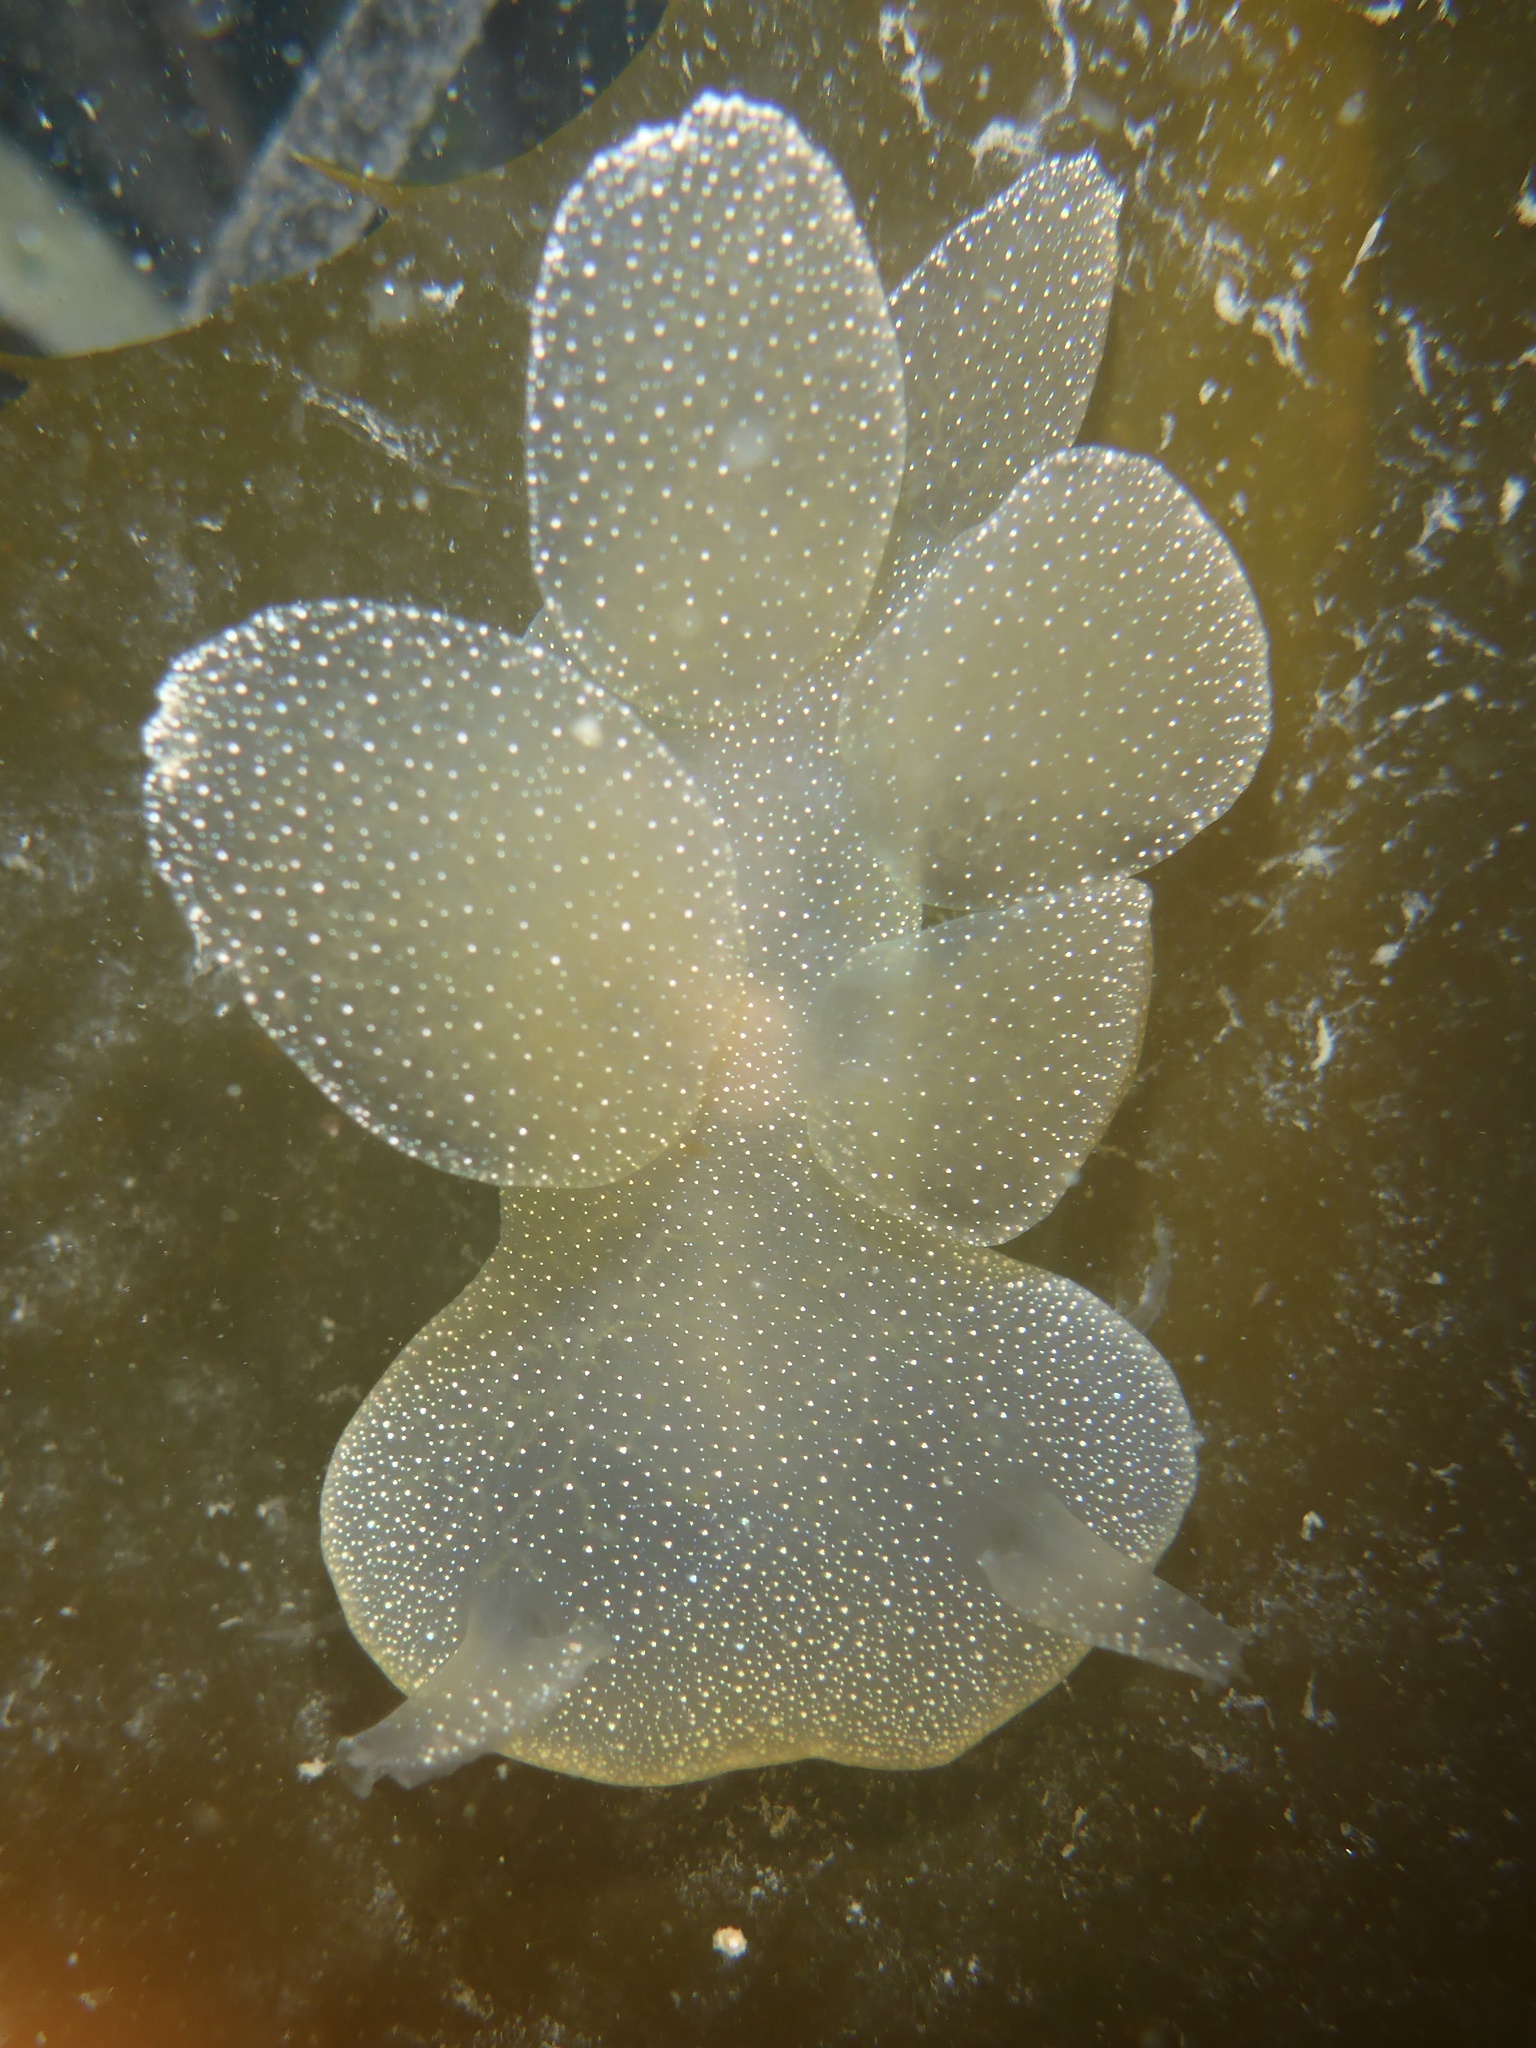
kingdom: Animalia
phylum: Mollusca
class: Gastropoda
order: Nudibranchia
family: Tethydidae
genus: Melibe
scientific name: Melibe leonina
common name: Lion nudibranch
